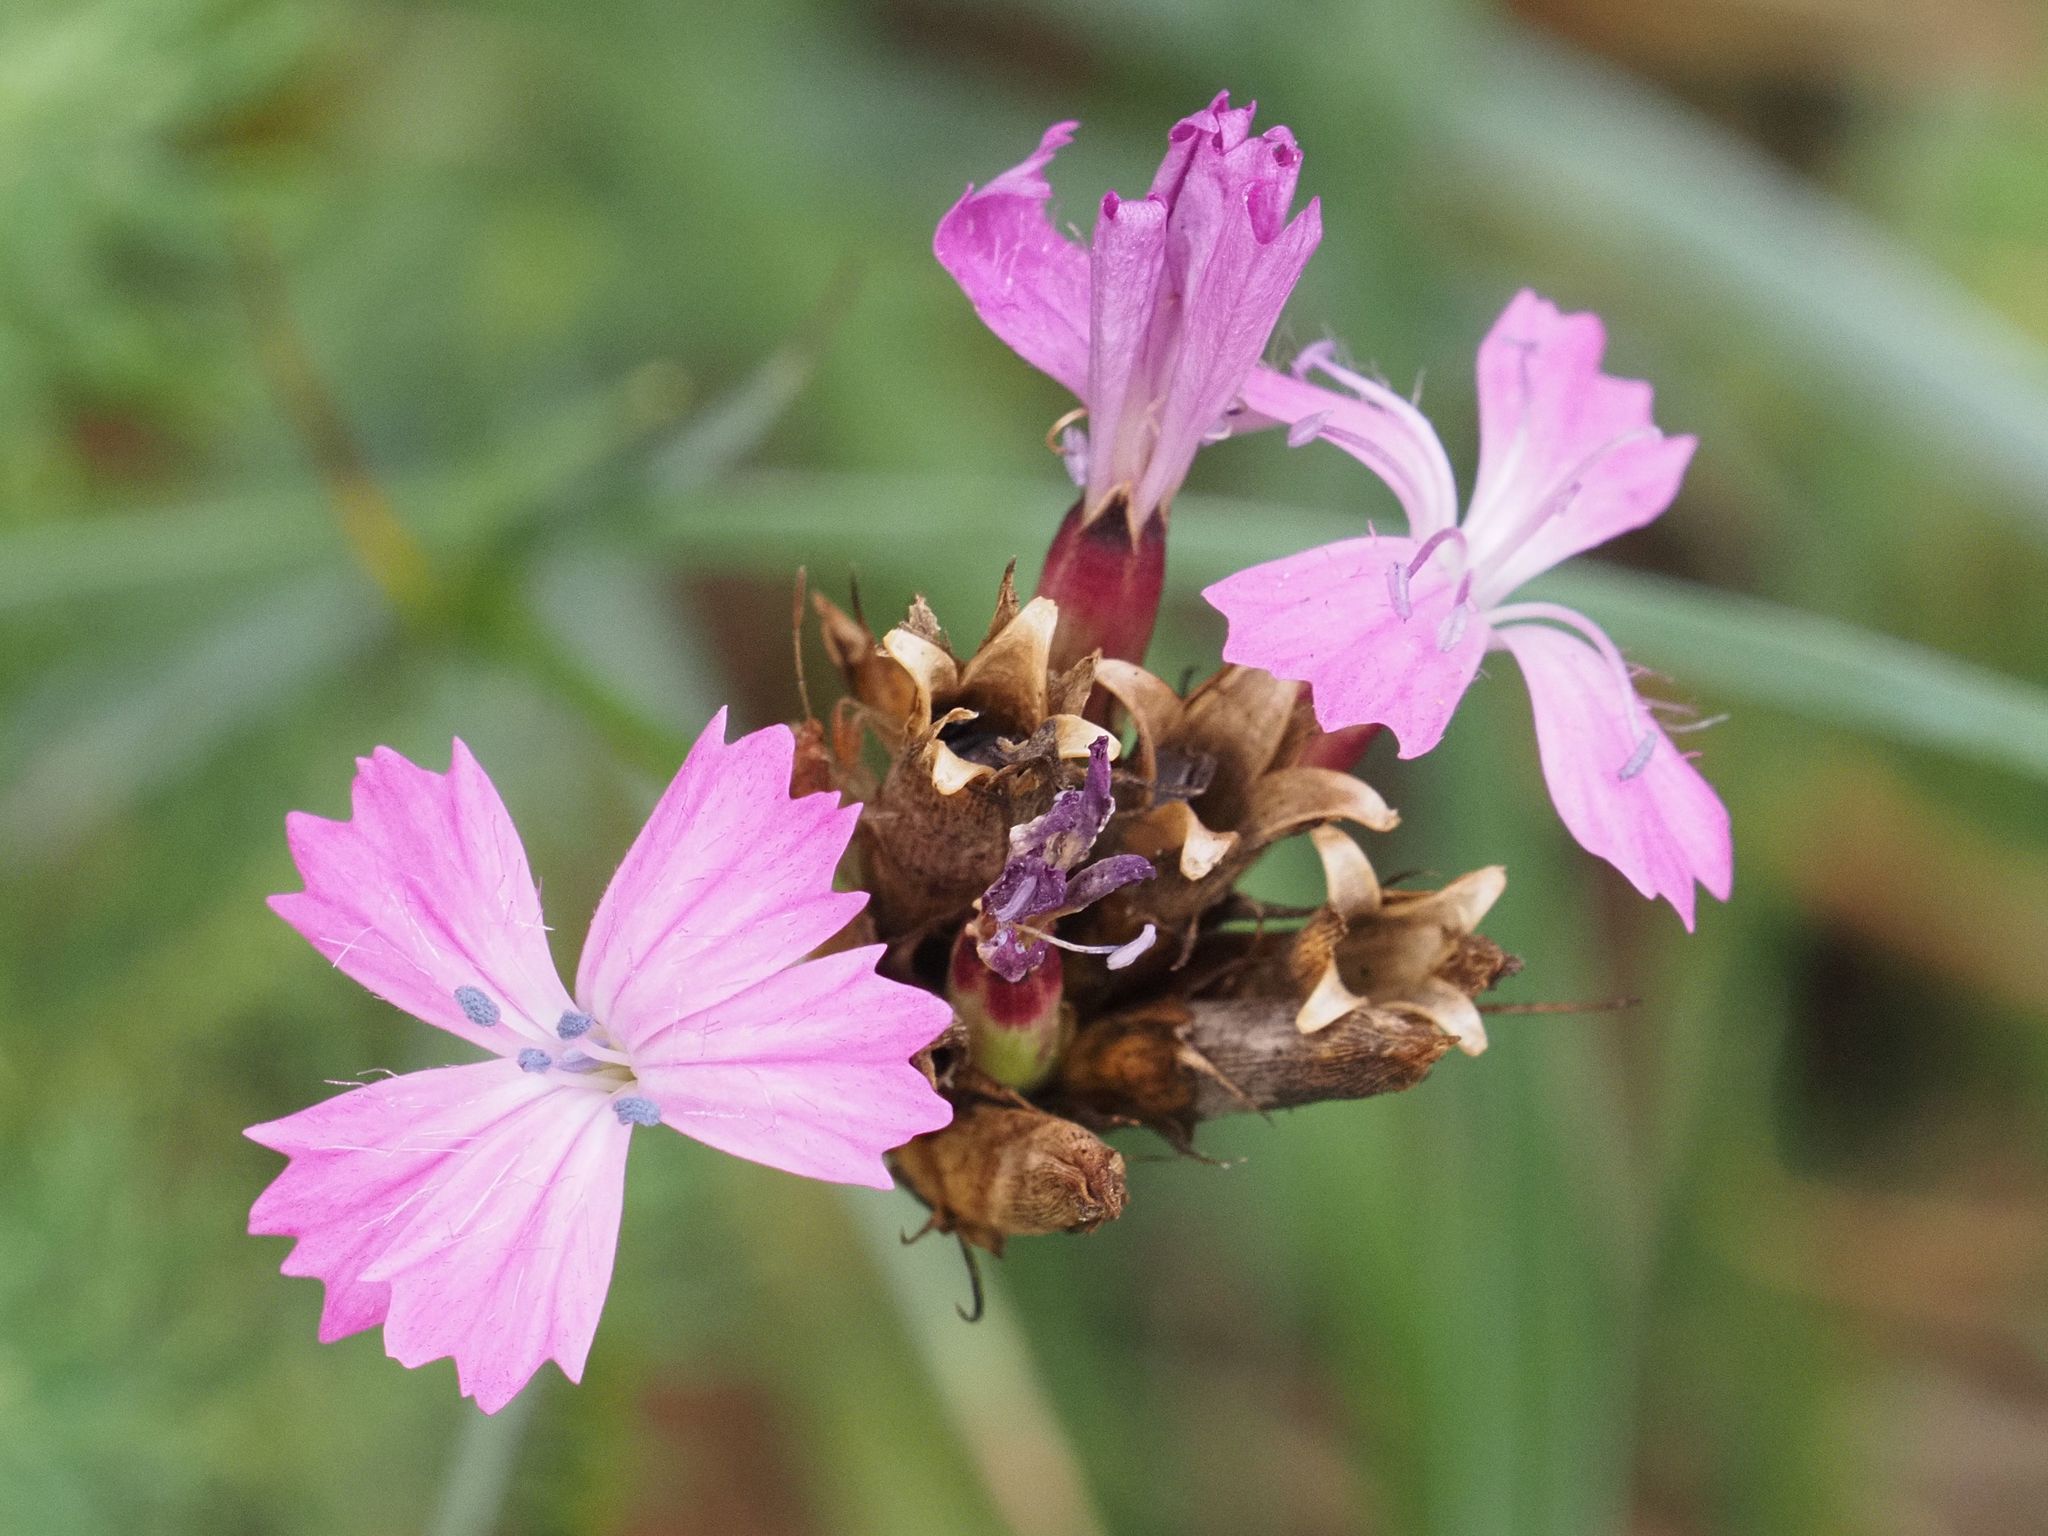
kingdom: Plantae
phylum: Tracheophyta
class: Magnoliopsida
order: Caryophyllales
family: Caryophyllaceae
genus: Dianthus
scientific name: Dianthus carthusianorum
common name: Carthusian pink
